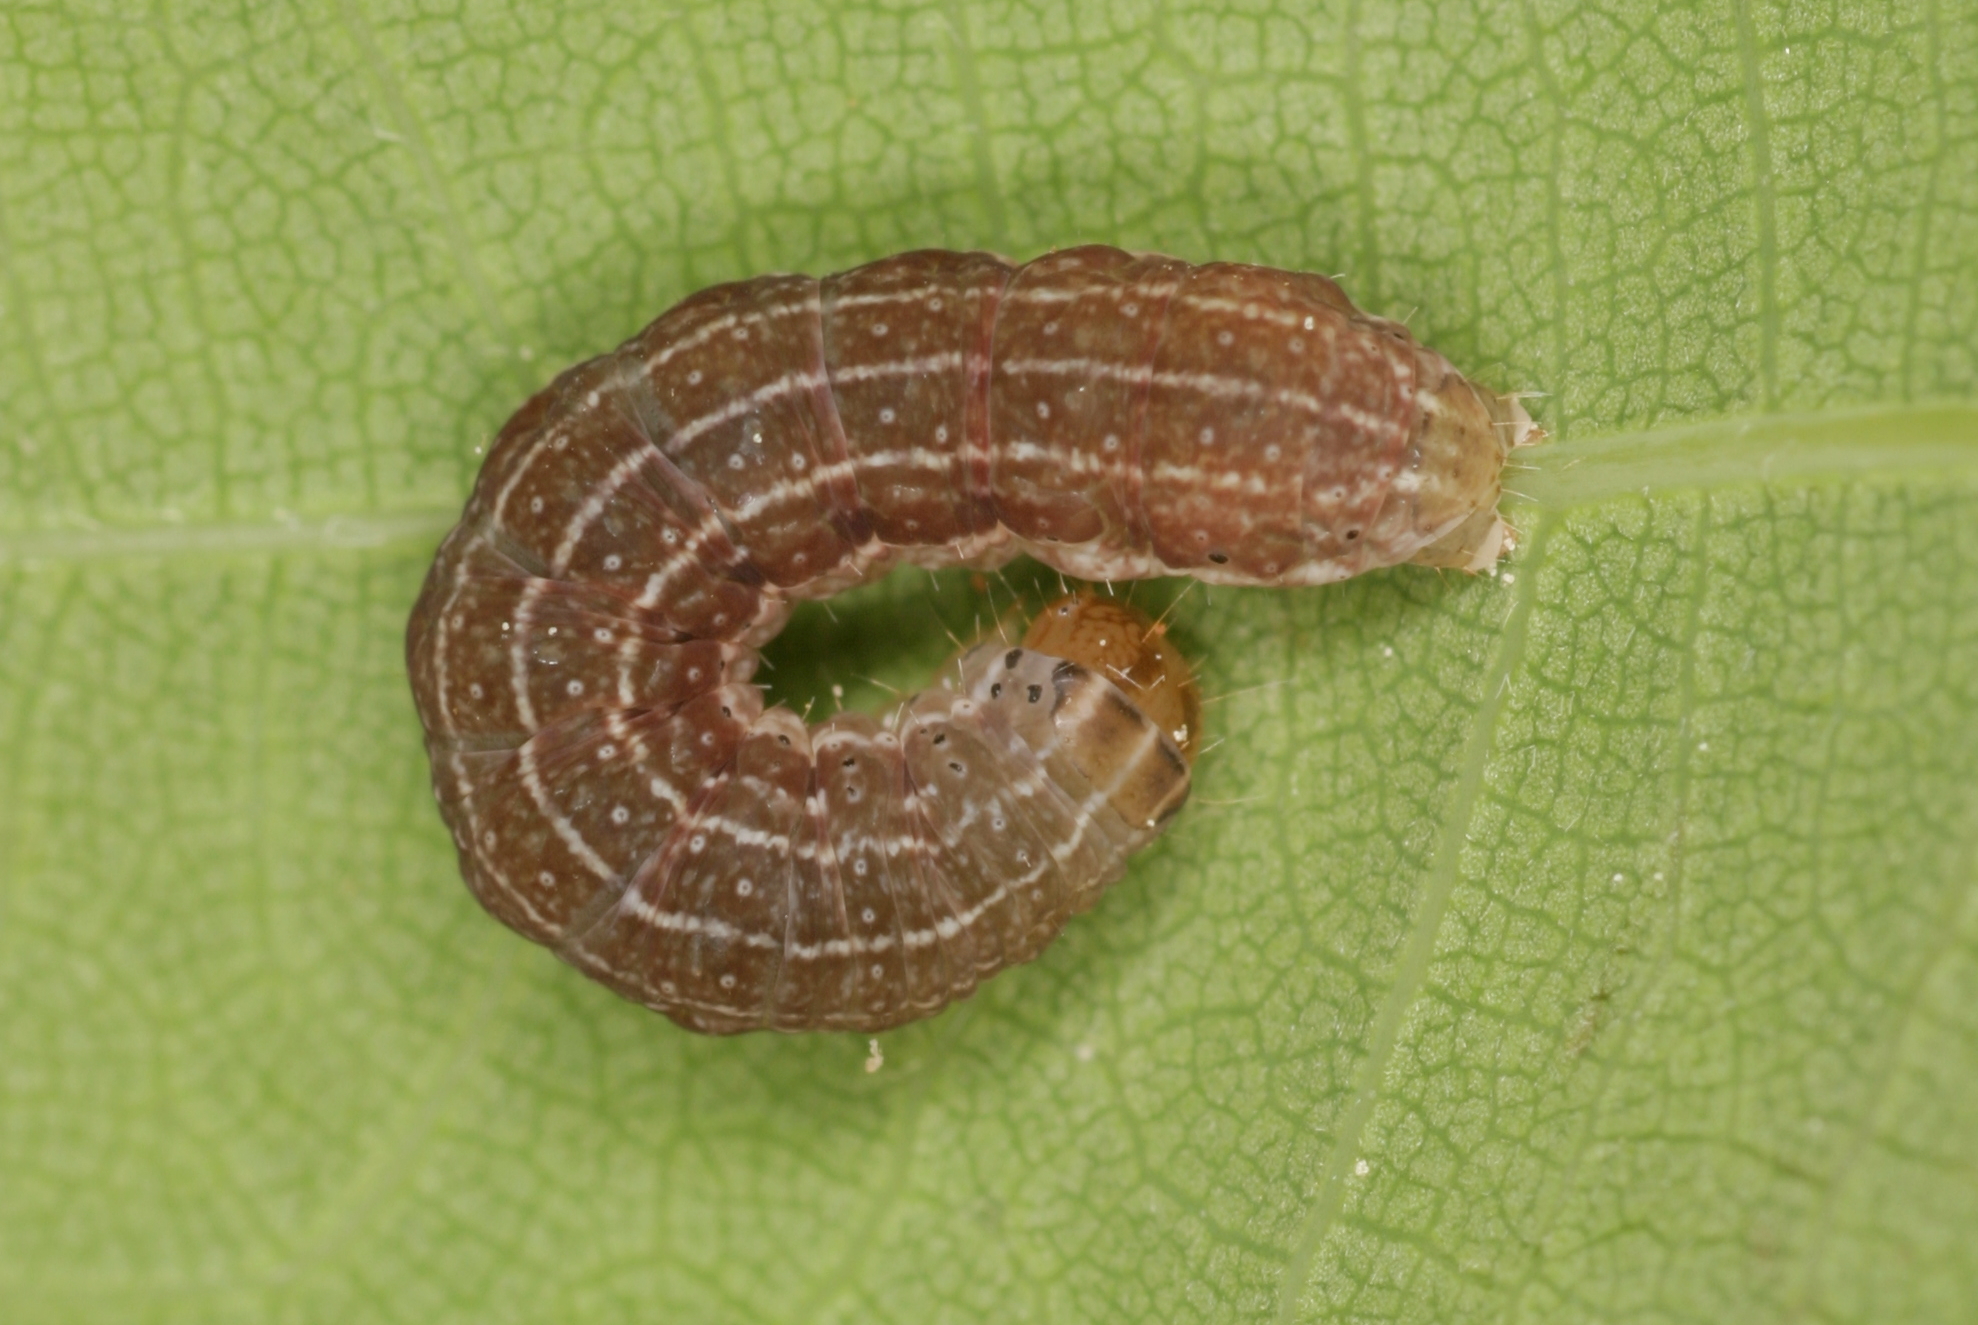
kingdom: Animalia
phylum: Arthropoda
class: Insecta
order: Lepidoptera
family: Noctuidae
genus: Agrochola
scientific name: Agrochola helvola
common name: Flounced chestnut
